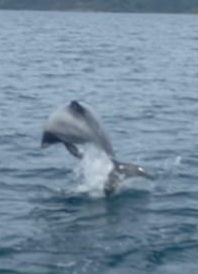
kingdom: Animalia
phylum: Chordata
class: Mammalia
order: Cetacea
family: Delphinidae
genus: Cephalorhynchus
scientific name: Cephalorhynchus hectori
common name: Hector's dolphin
